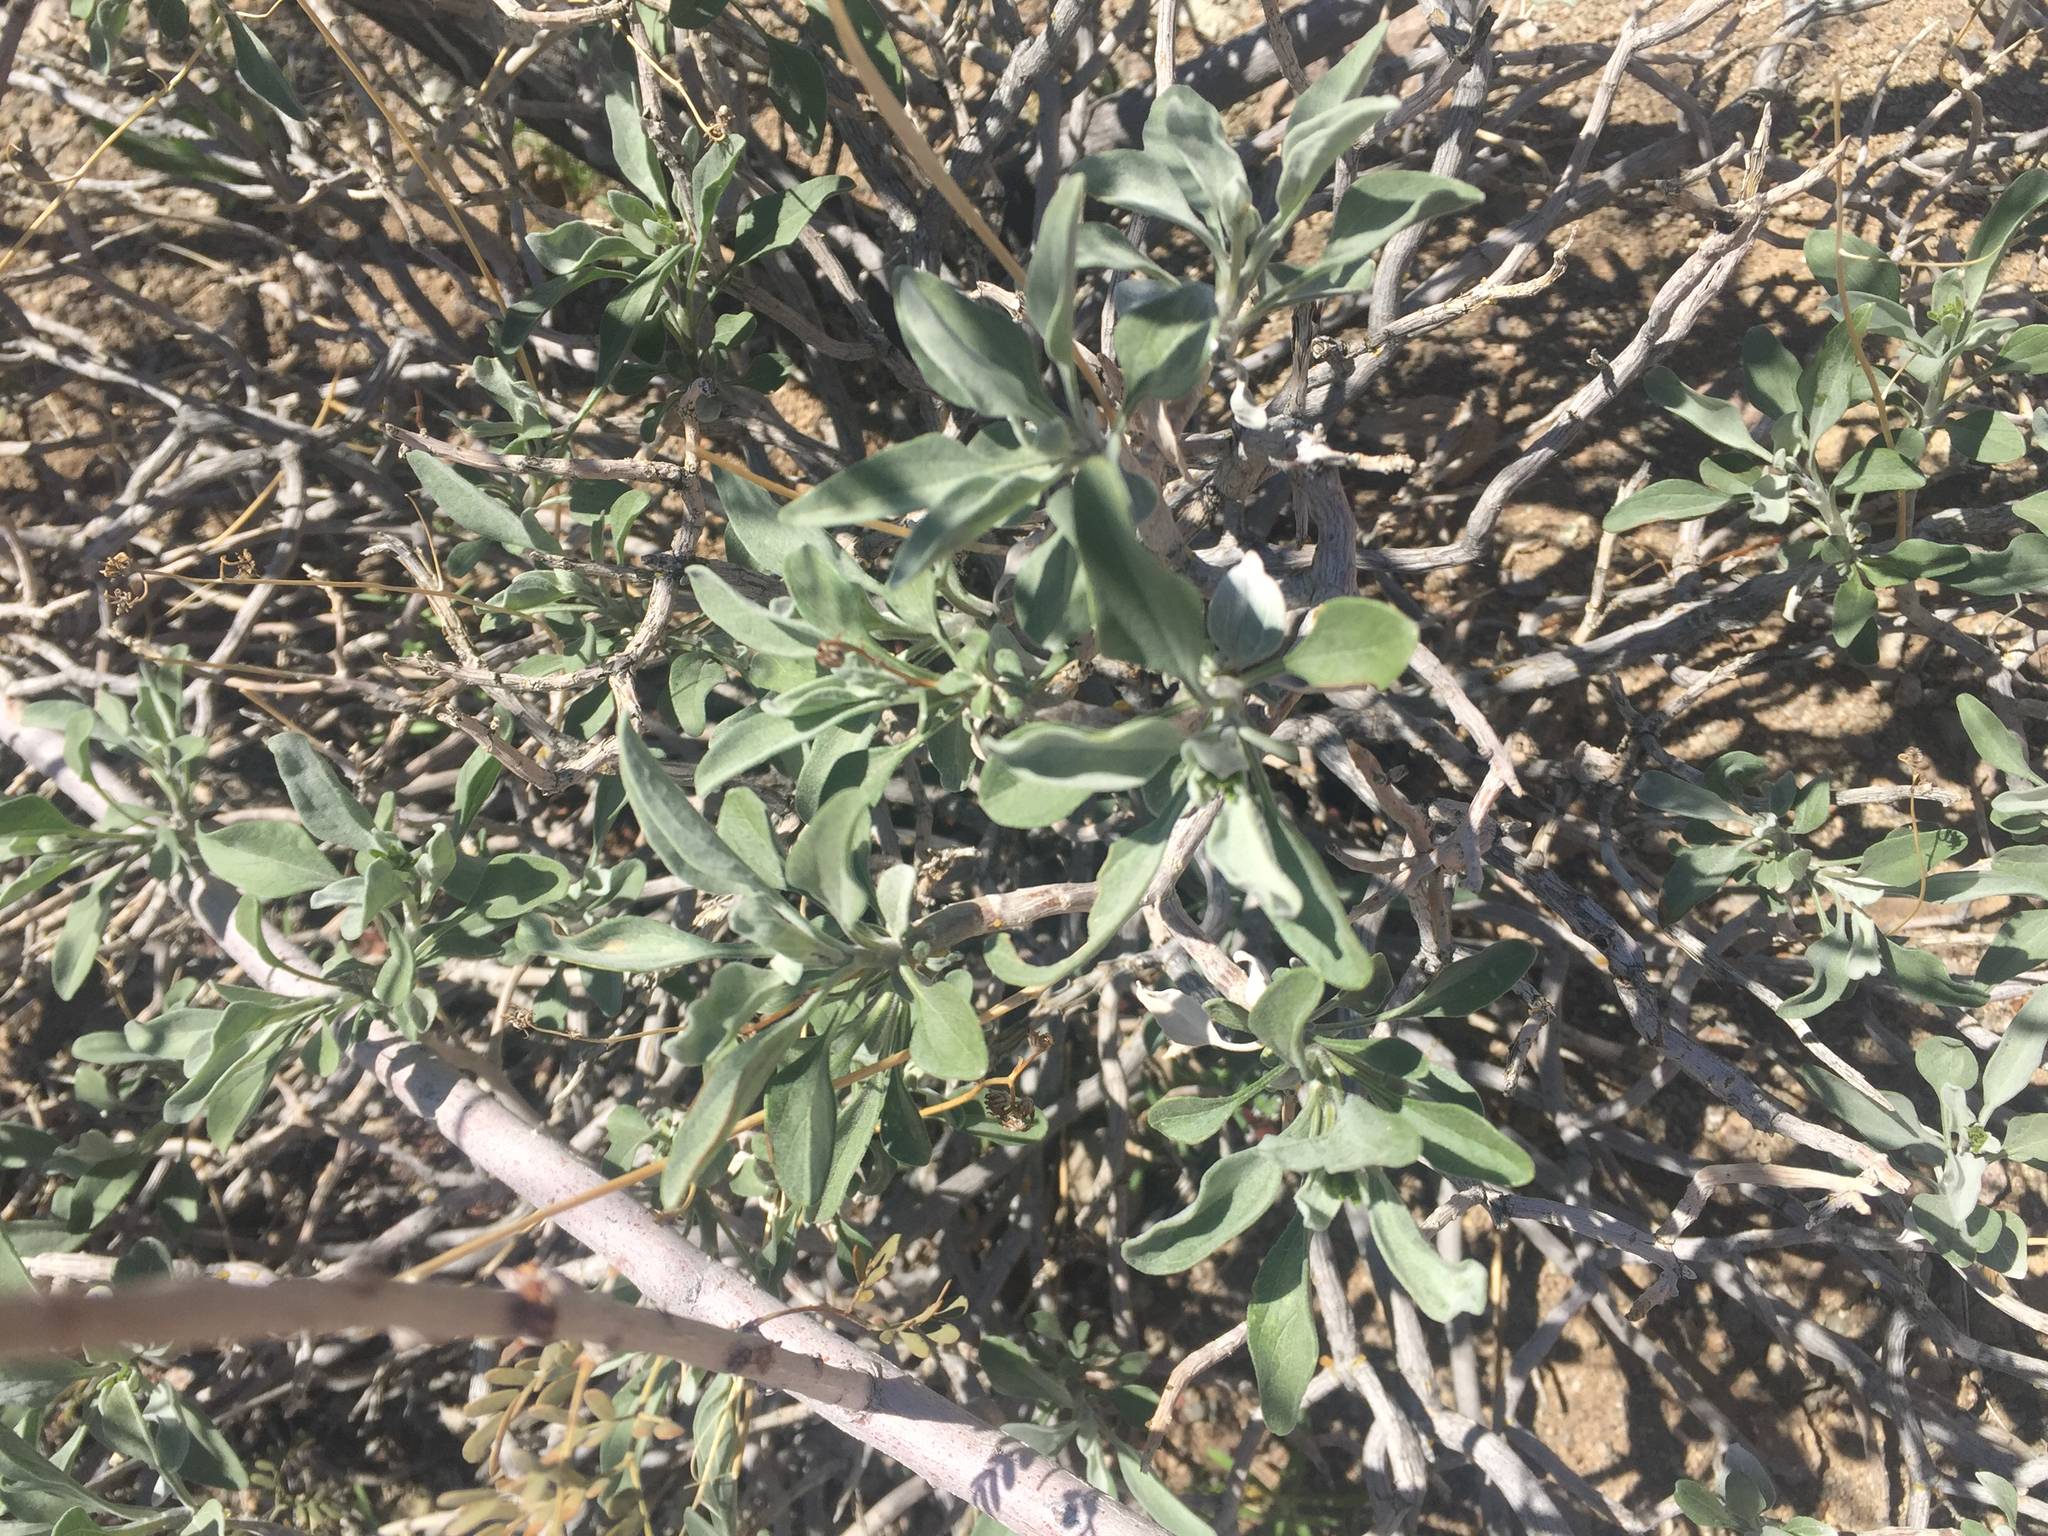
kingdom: Plantae
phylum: Tracheophyta
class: Magnoliopsida
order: Asterales
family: Asteraceae
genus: Encelia
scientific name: Encelia farinosa
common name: Brittlebush
